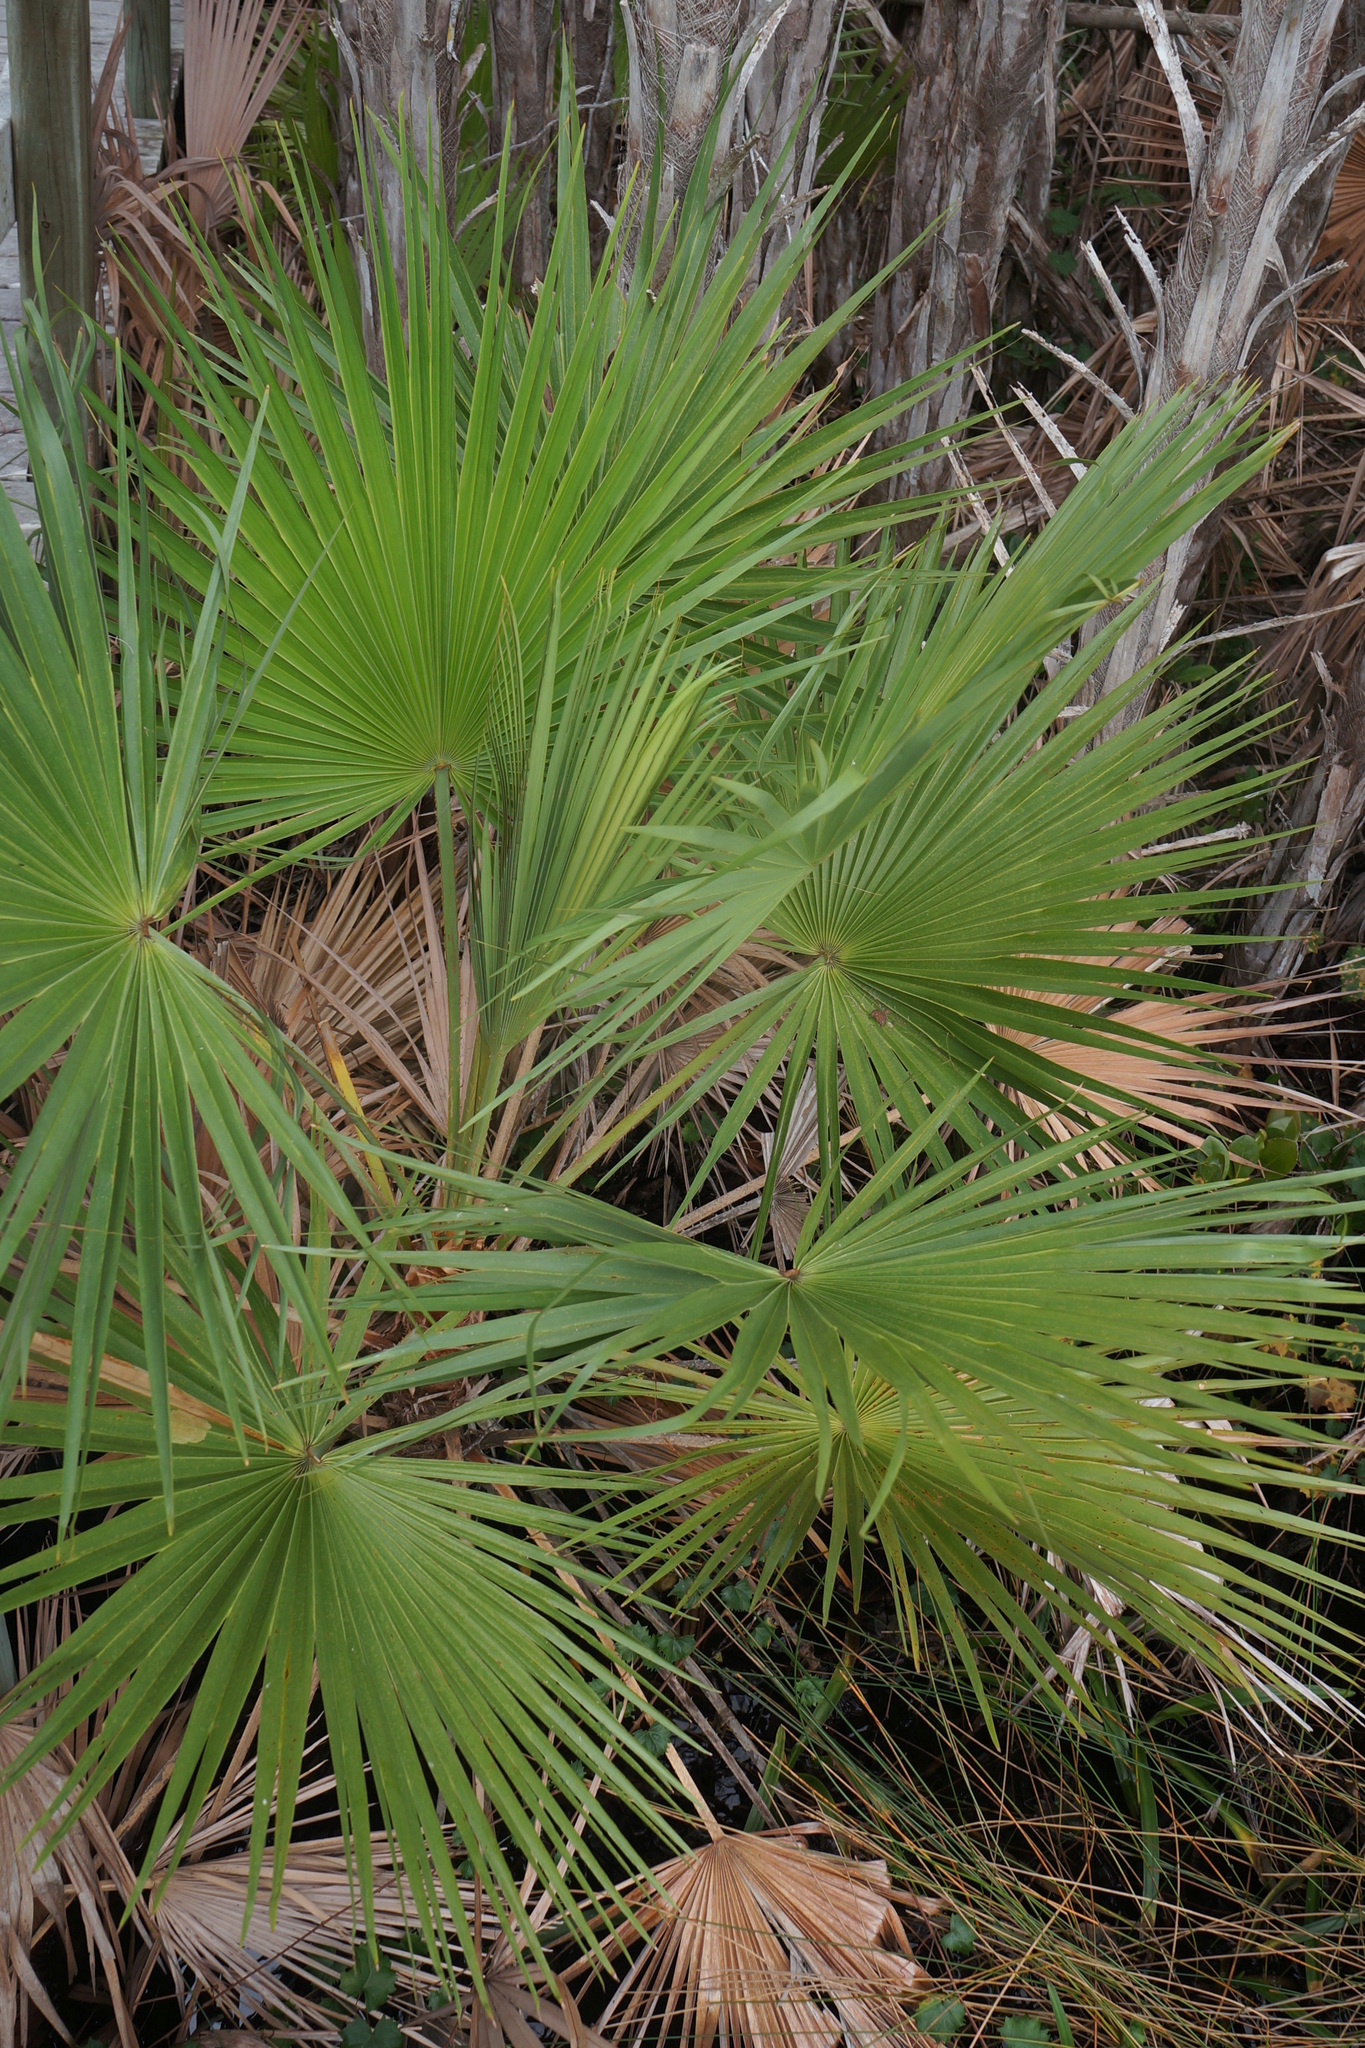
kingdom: Plantae
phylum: Tracheophyta
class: Liliopsida
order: Arecales
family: Arecaceae
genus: Serenoa
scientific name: Serenoa repens
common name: Saw-palmetto
